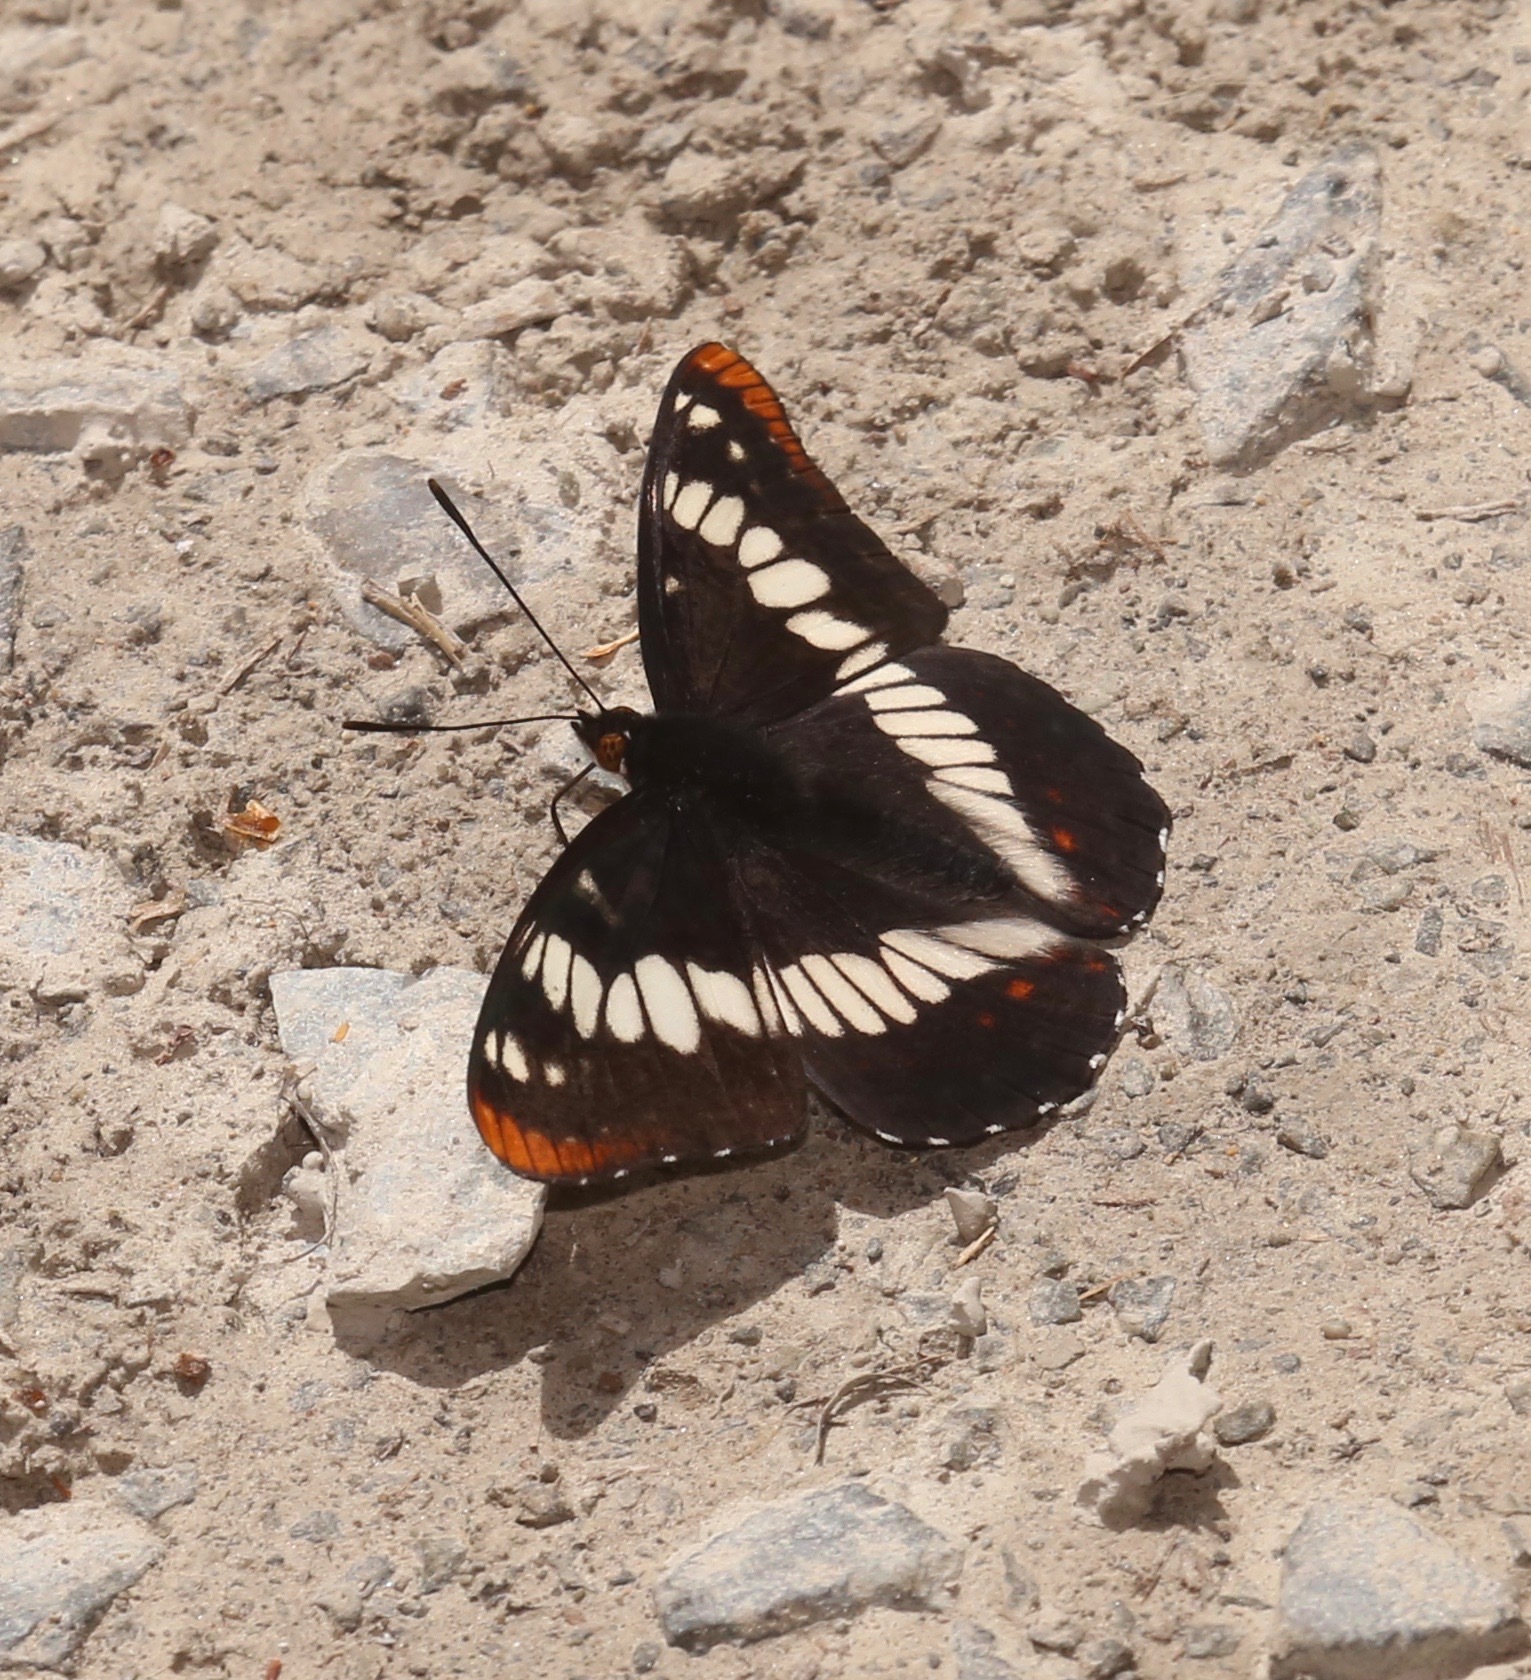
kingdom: Animalia
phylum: Arthropoda
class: Insecta
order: Lepidoptera
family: Nymphalidae
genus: Limenitis
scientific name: Limenitis lorquini
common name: Lorquin's admiral
